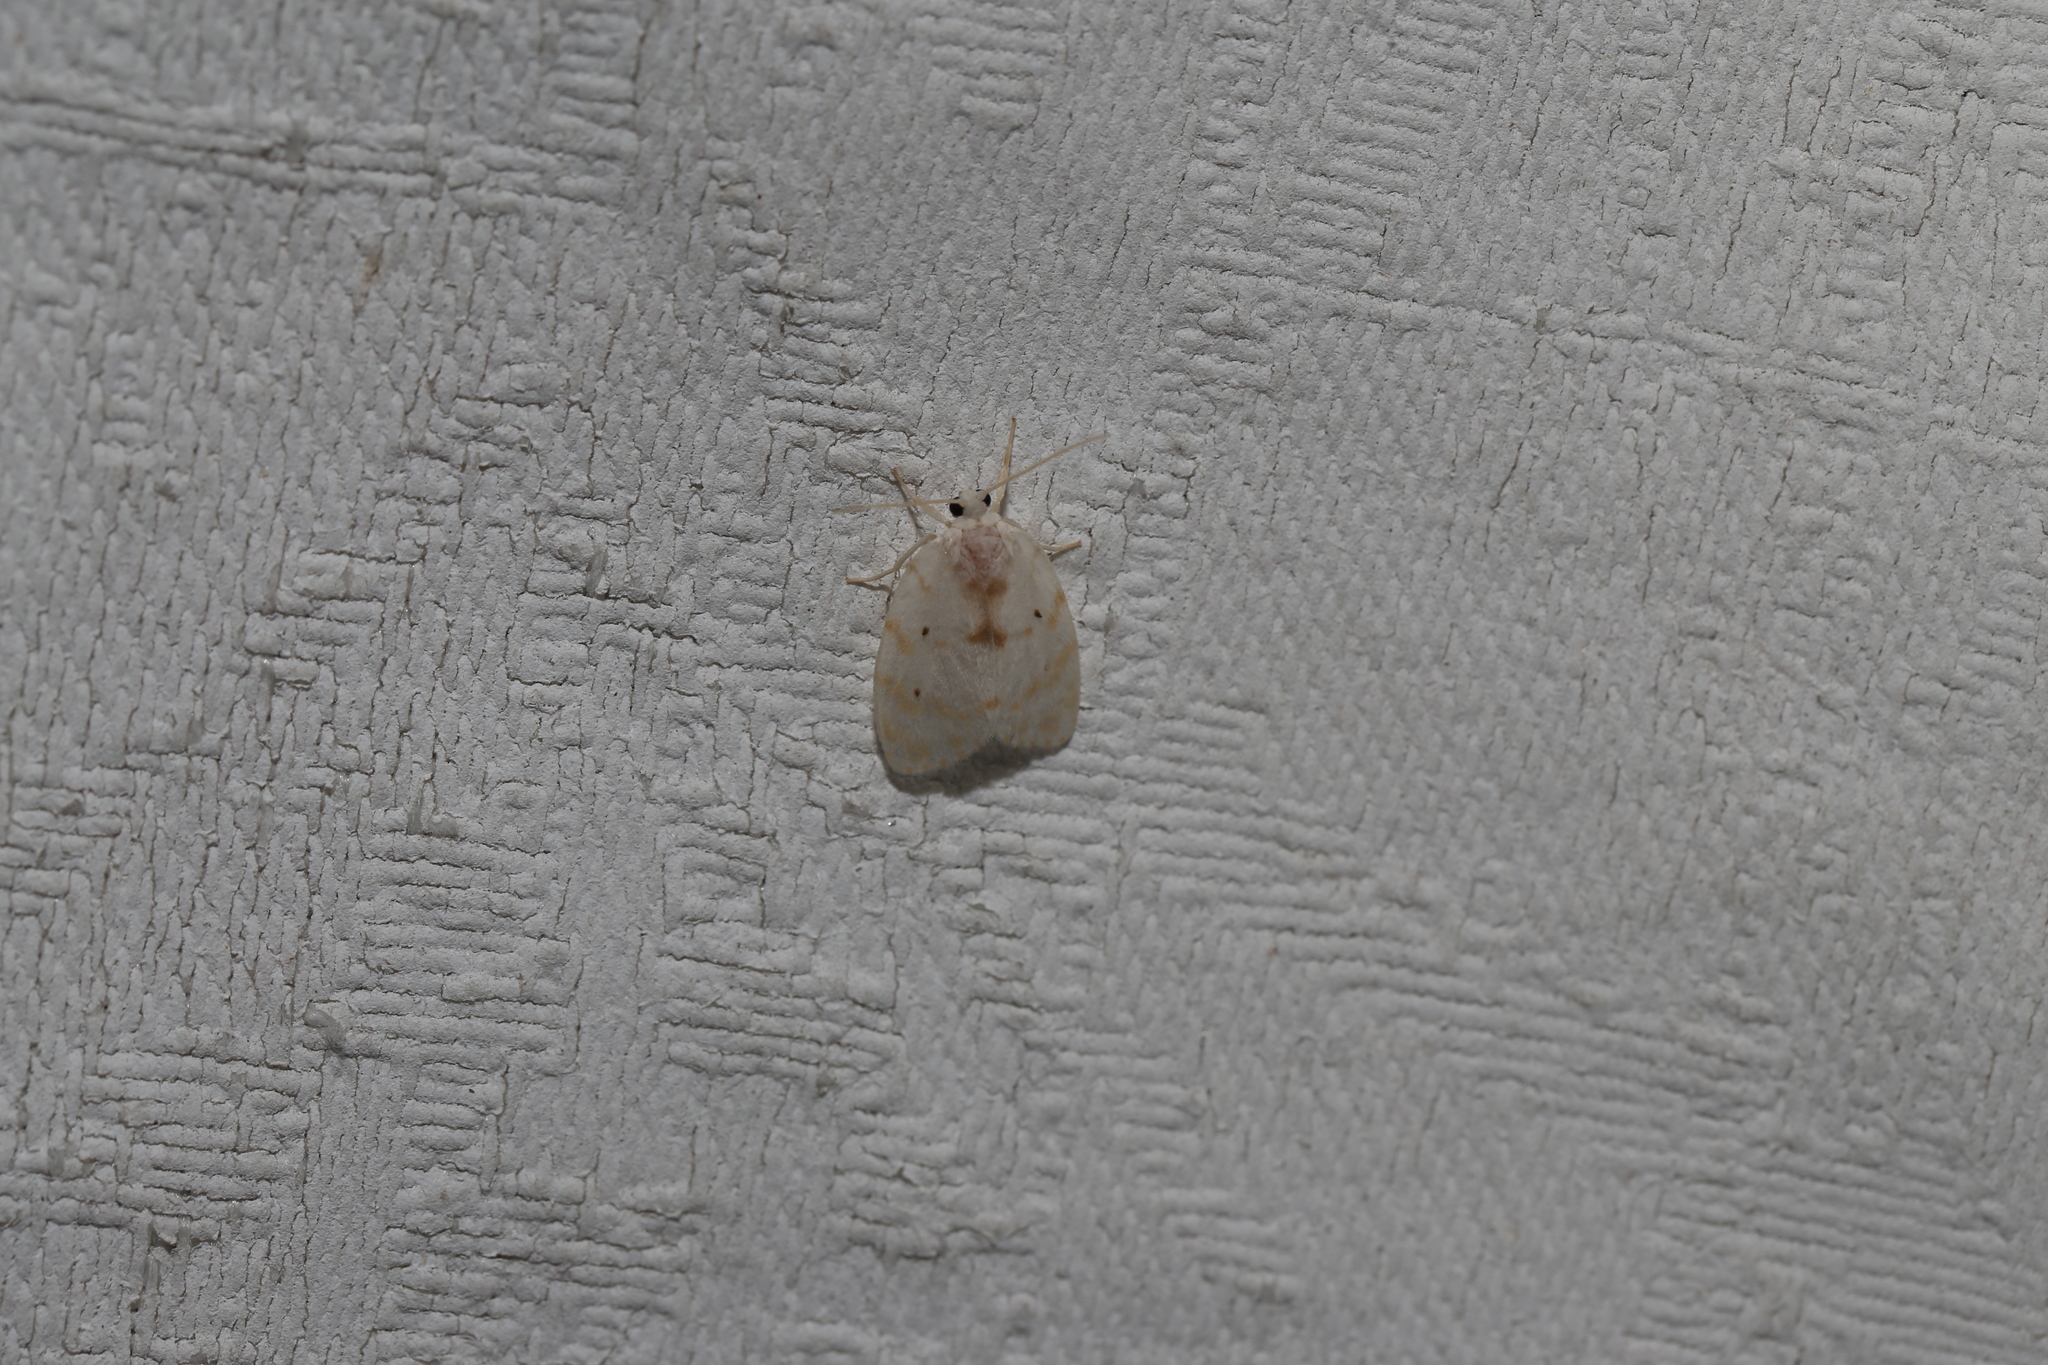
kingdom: Animalia
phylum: Arthropoda
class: Insecta
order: Lepidoptera
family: Erebidae
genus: Schistophleps
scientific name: Schistophleps albida
